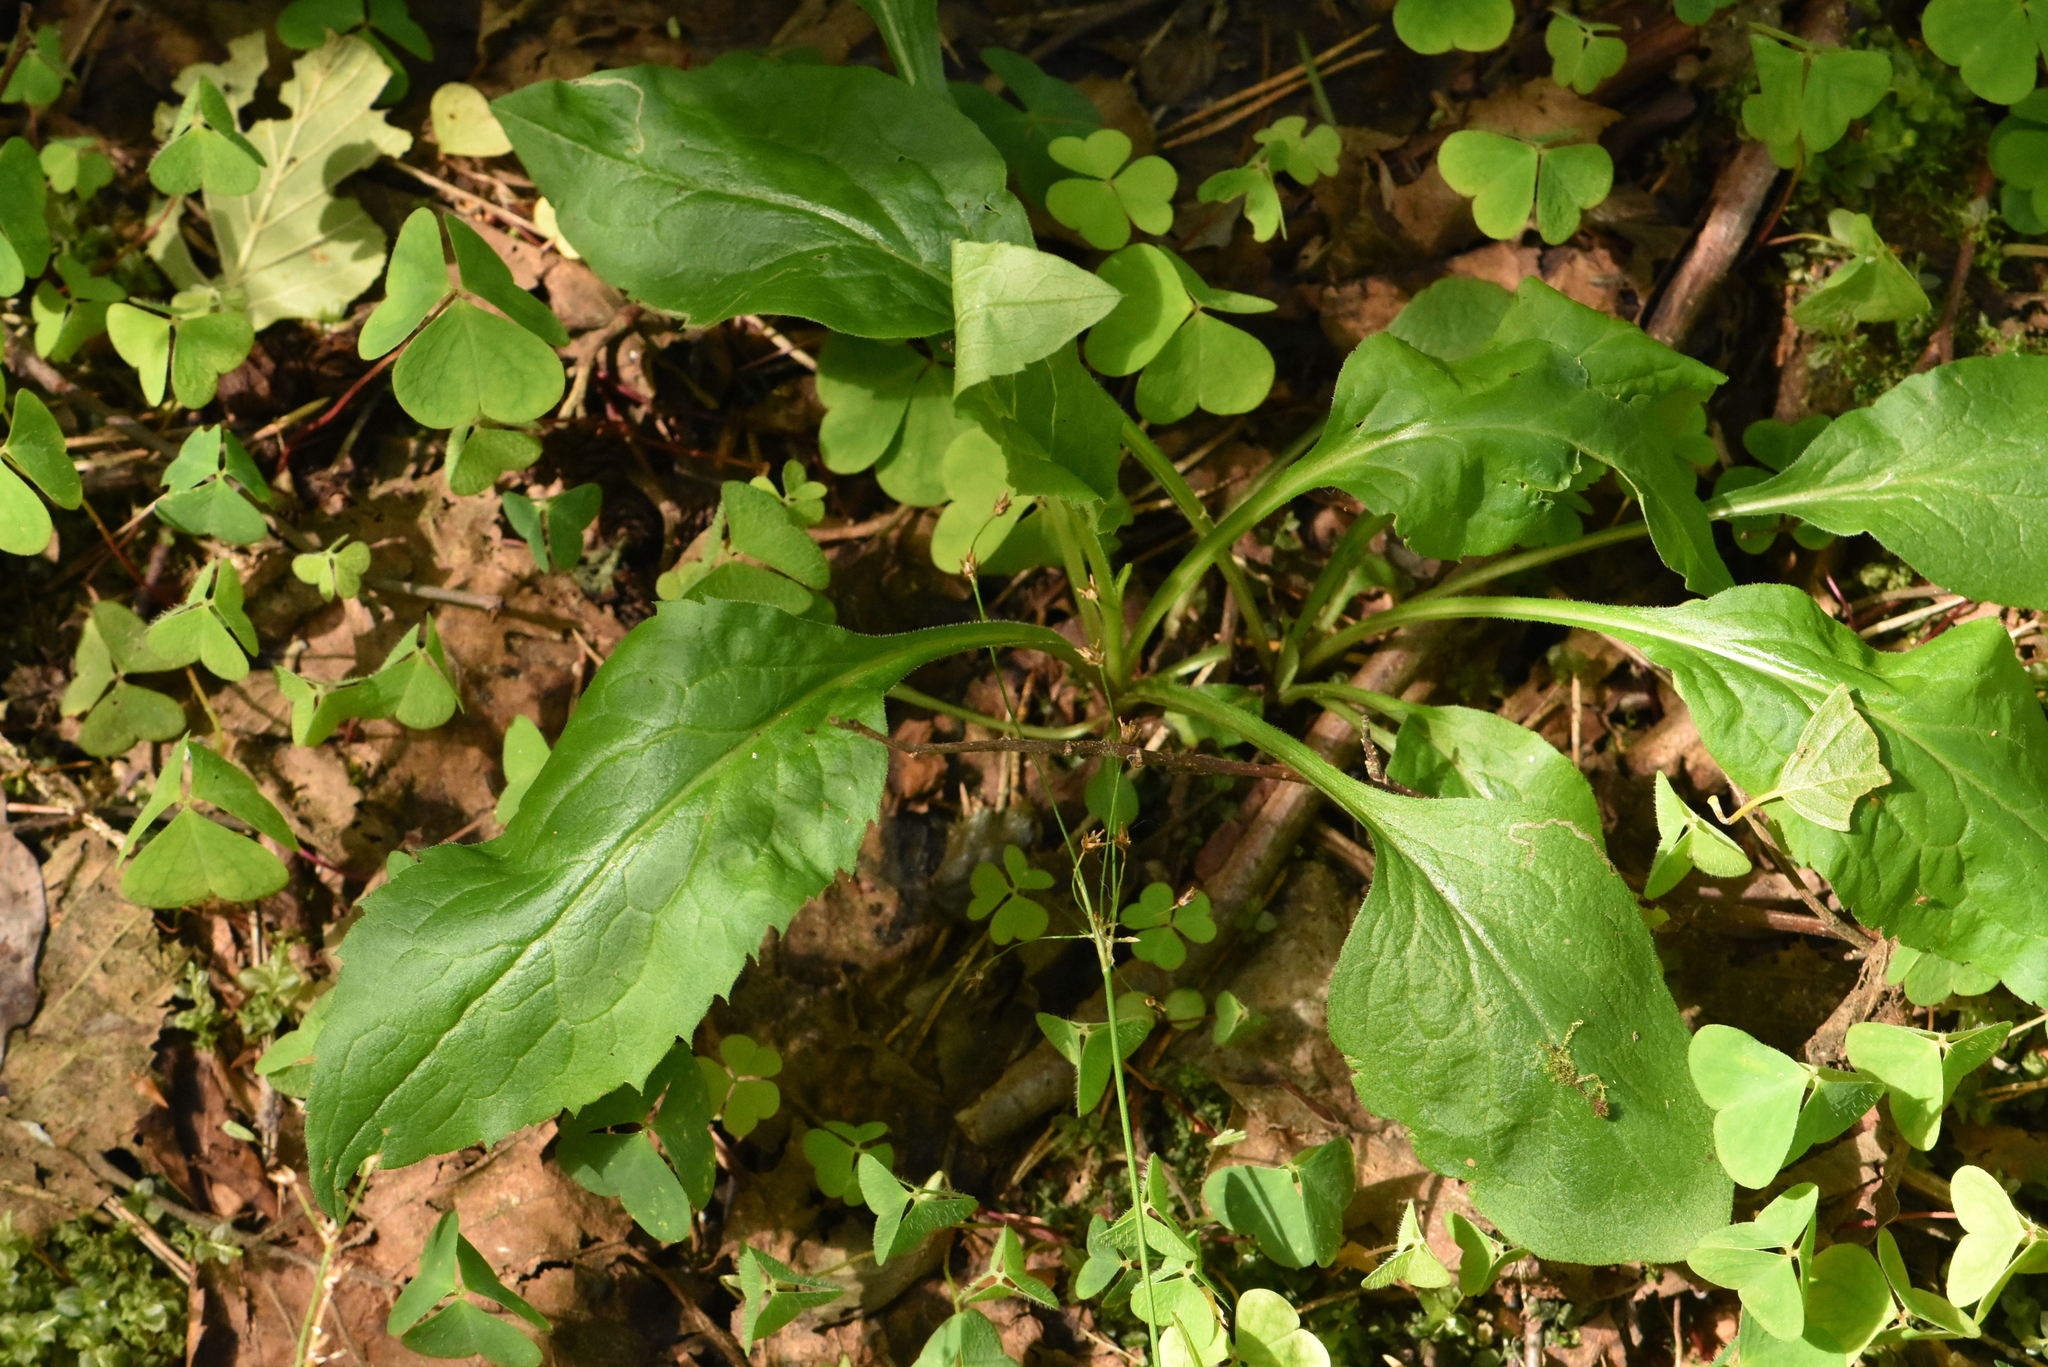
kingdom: Plantae
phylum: Tracheophyta
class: Magnoliopsida
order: Asterales
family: Asteraceae
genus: Solidago
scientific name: Solidago virgaurea
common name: Goldenrod
